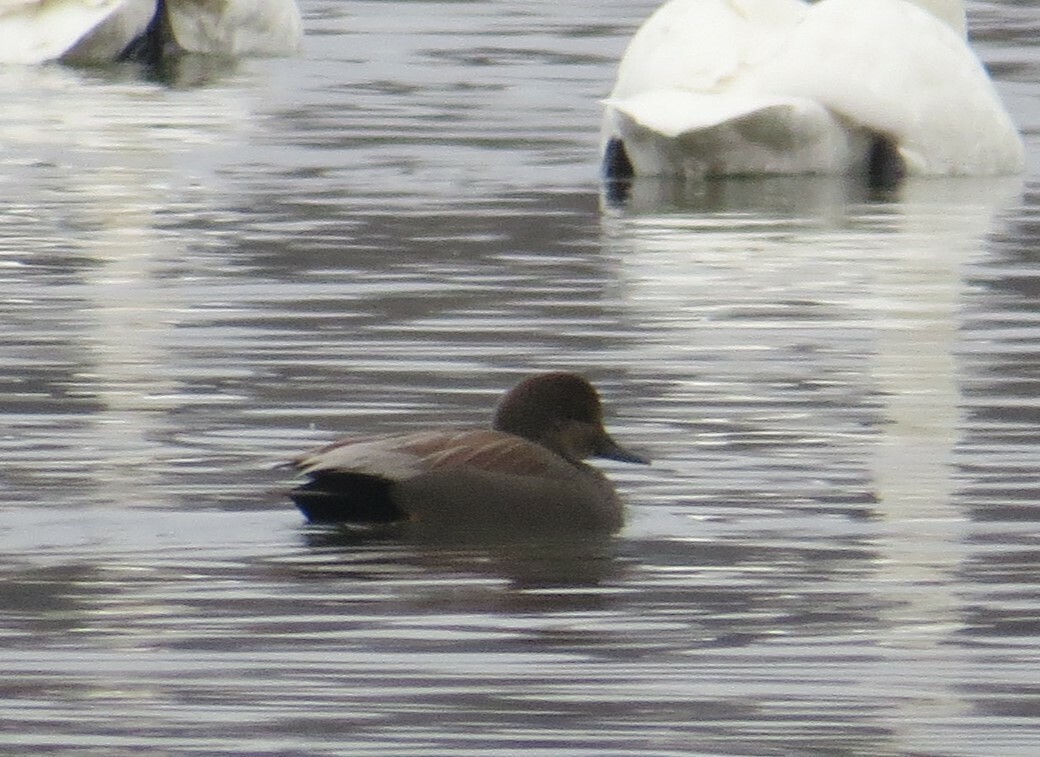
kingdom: Animalia
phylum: Chordata
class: Aves
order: Anseriformes
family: Anatidae
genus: Mareca
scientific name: Mareca strepera
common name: Gadwall
